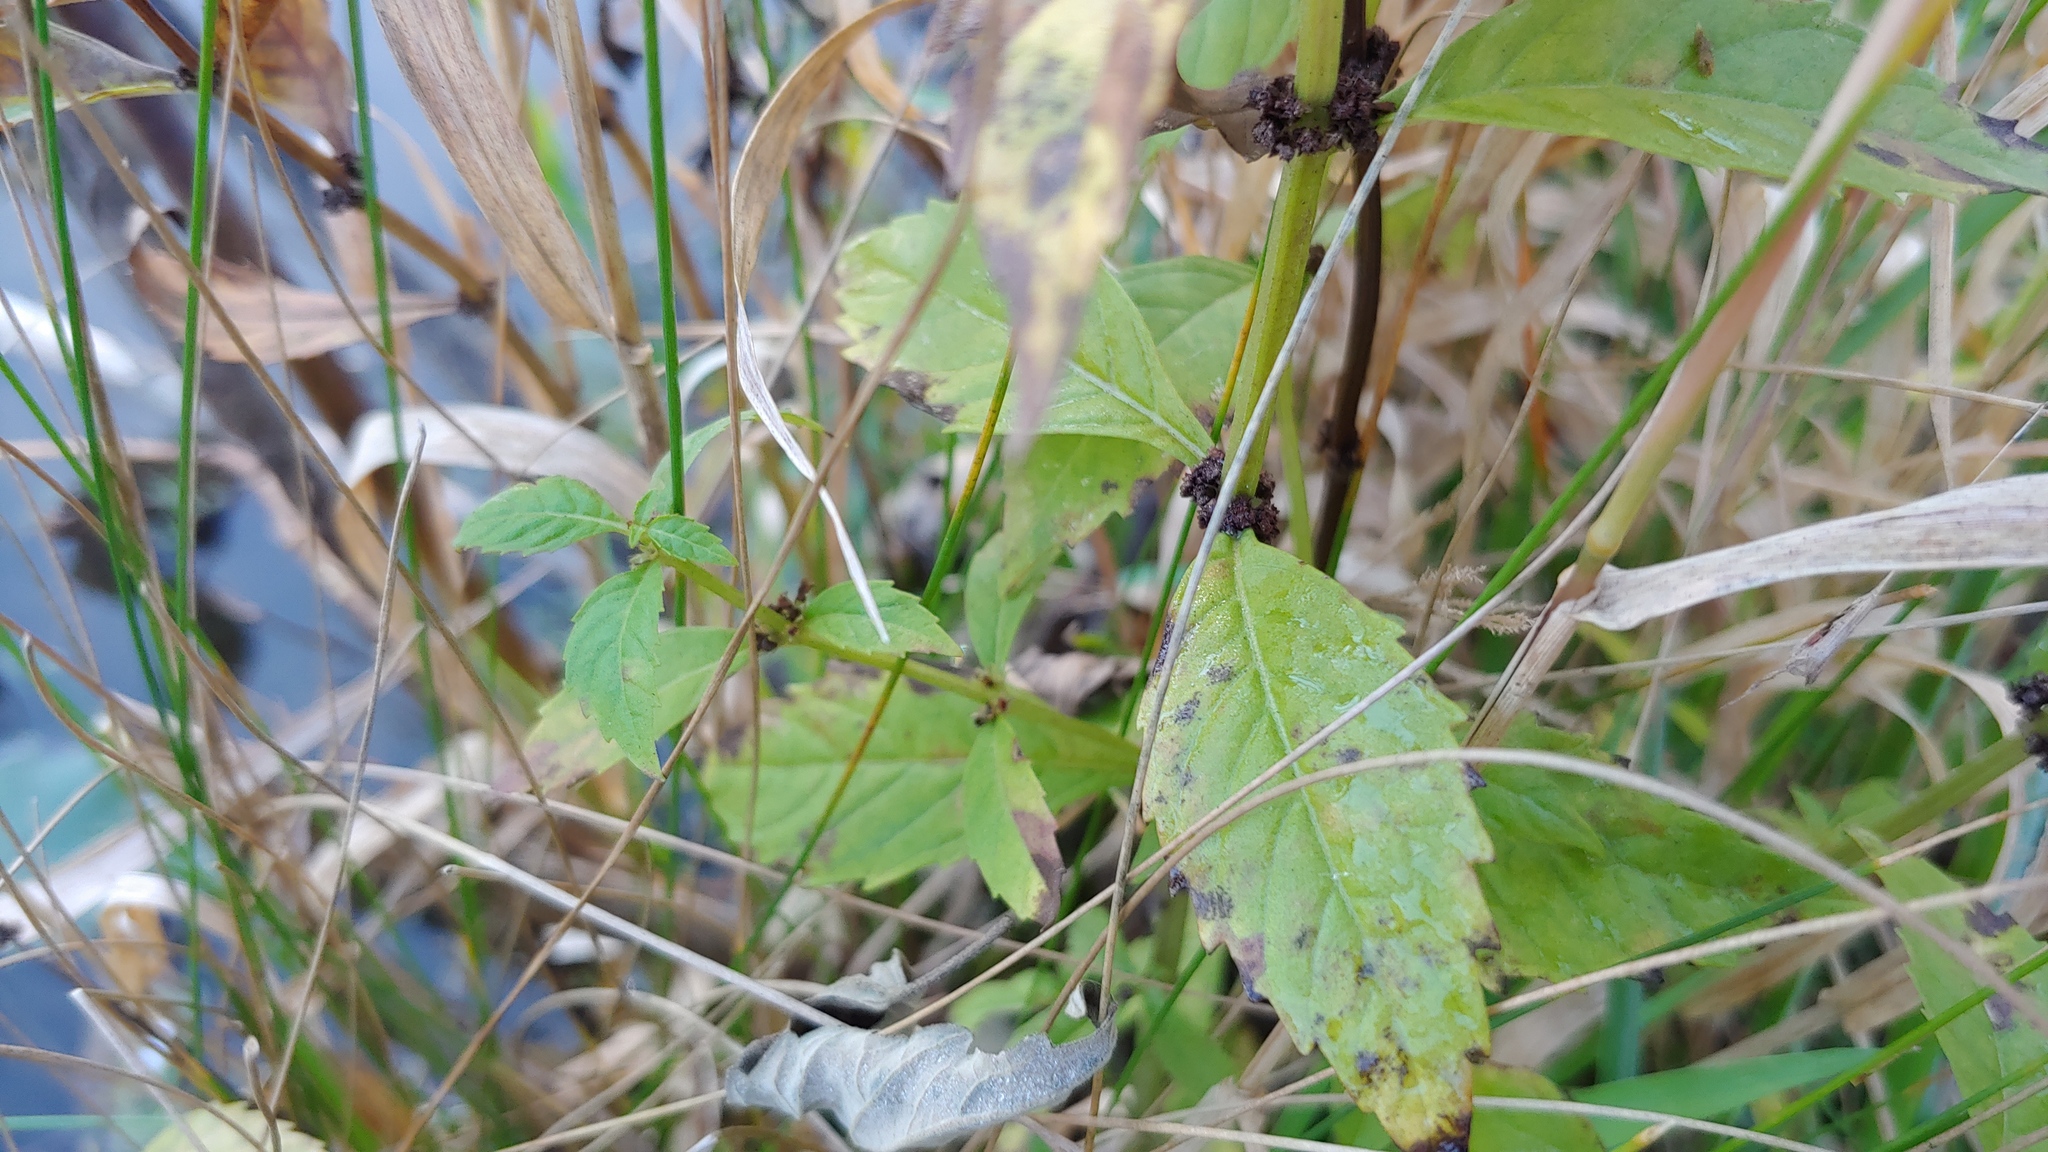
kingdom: Plantae
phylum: Tracheophyta
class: Magnoliopsida
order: Lamiales
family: Lamiaceae
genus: Lycopus
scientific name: Lycopus uniflorus
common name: Northern bugleweed
